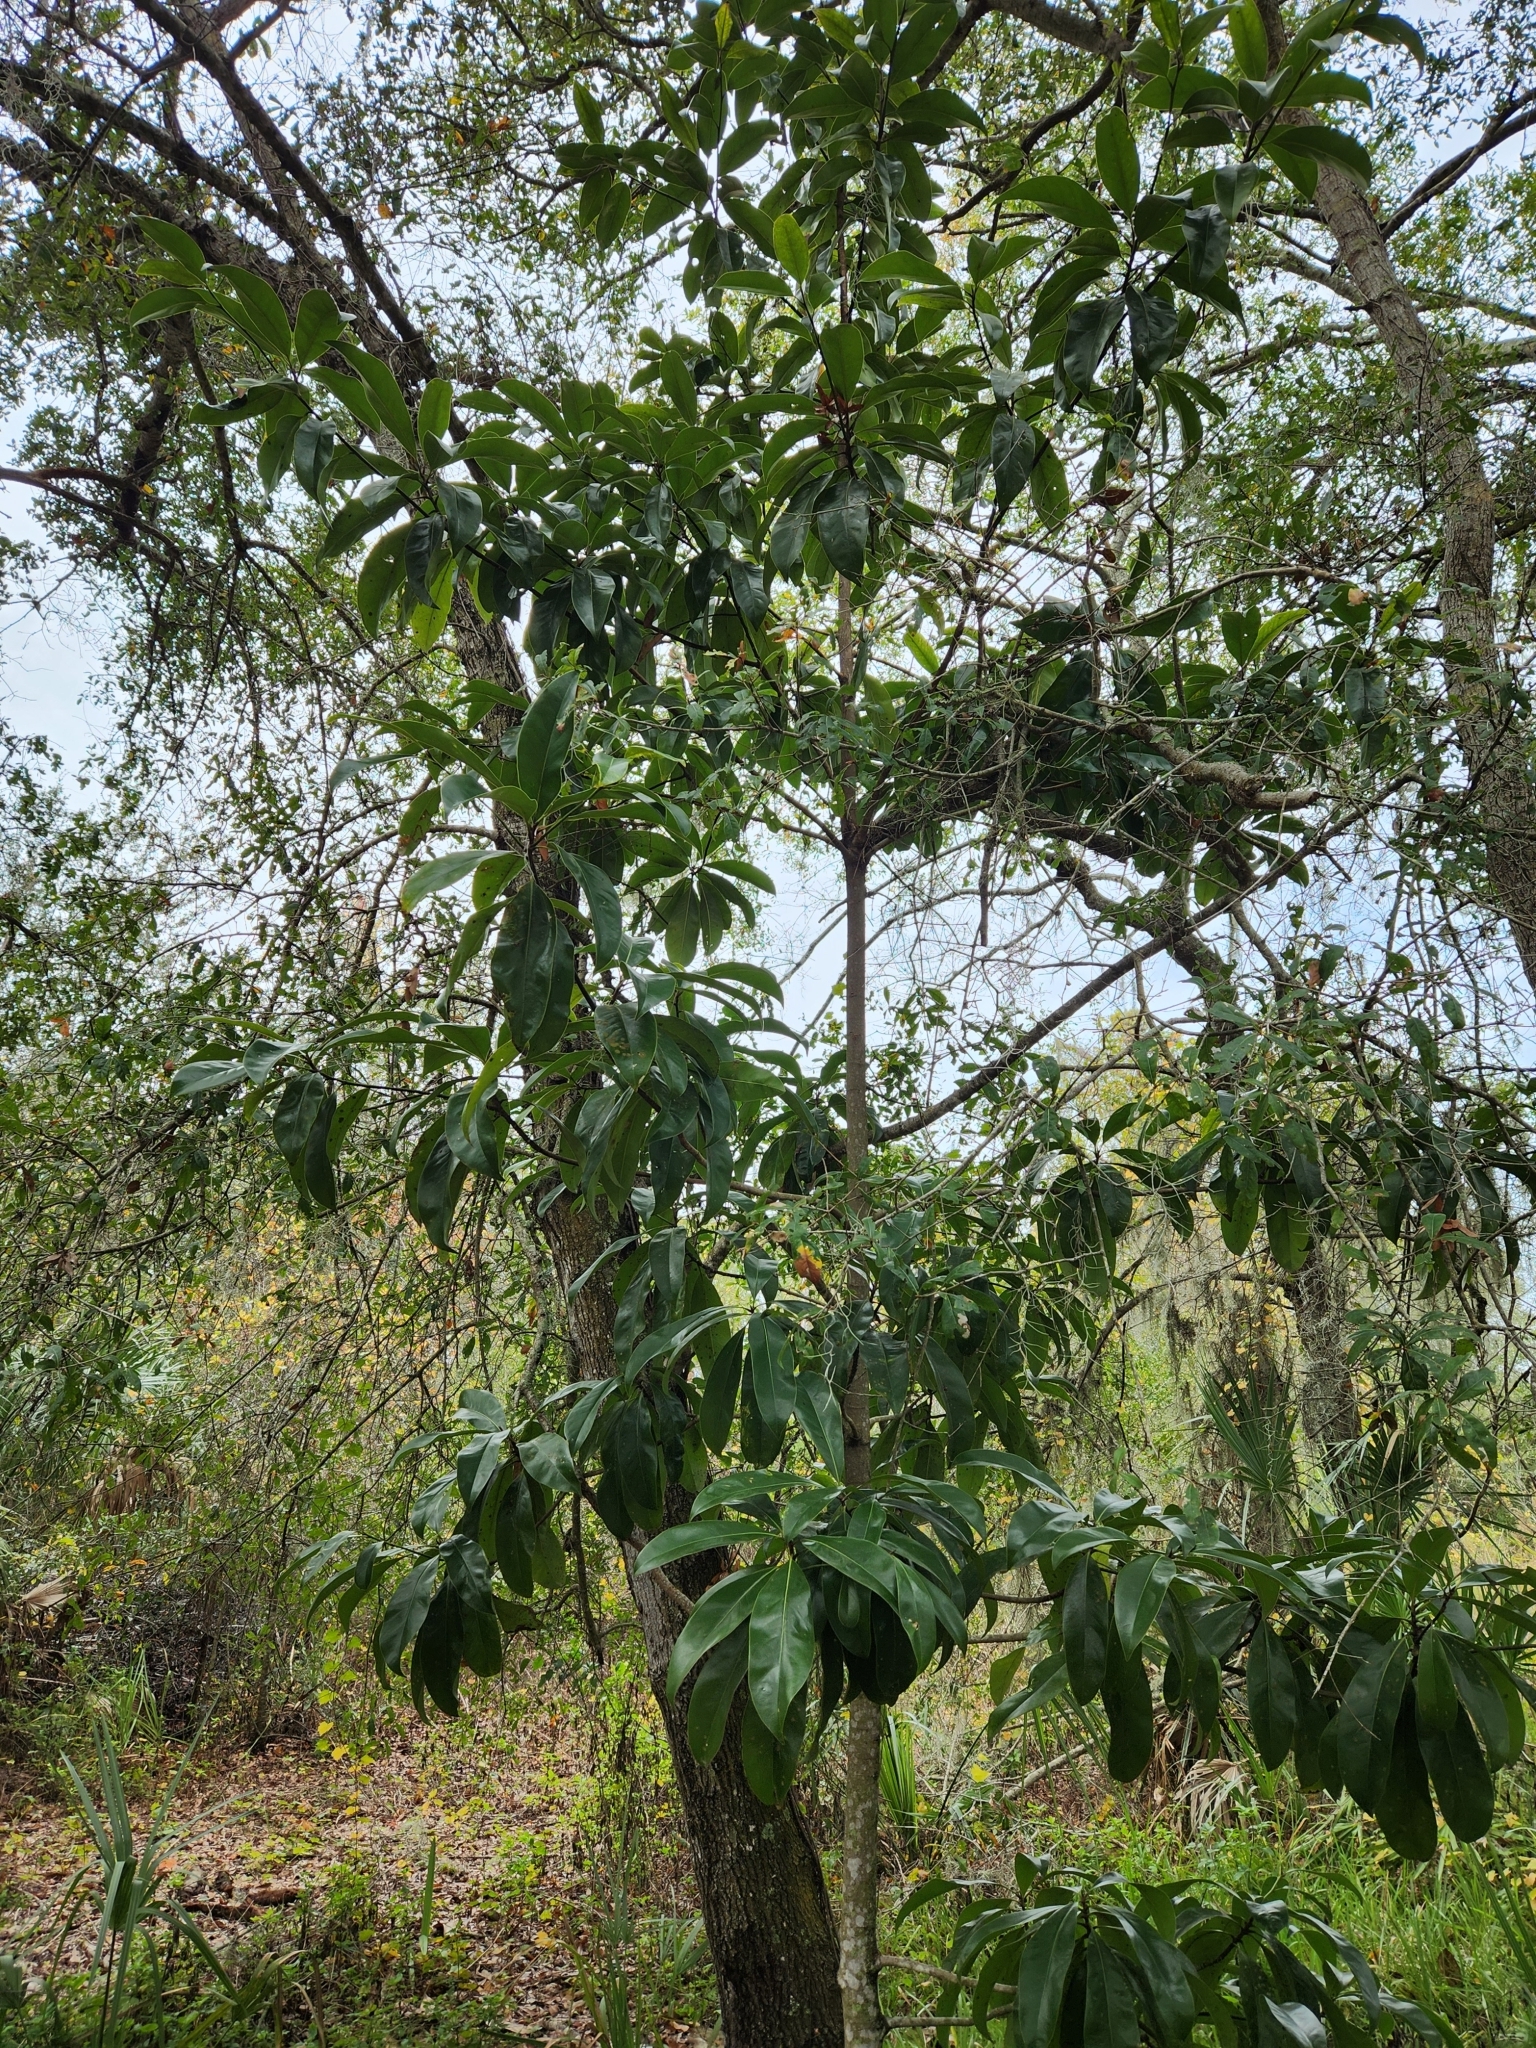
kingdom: Plantae
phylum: Tracheophyta
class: Magnoliopsida
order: Magnoliales
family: Magnoliaceae
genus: Magnolia
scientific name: Magnolia grandiflora
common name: Southern magnolia
